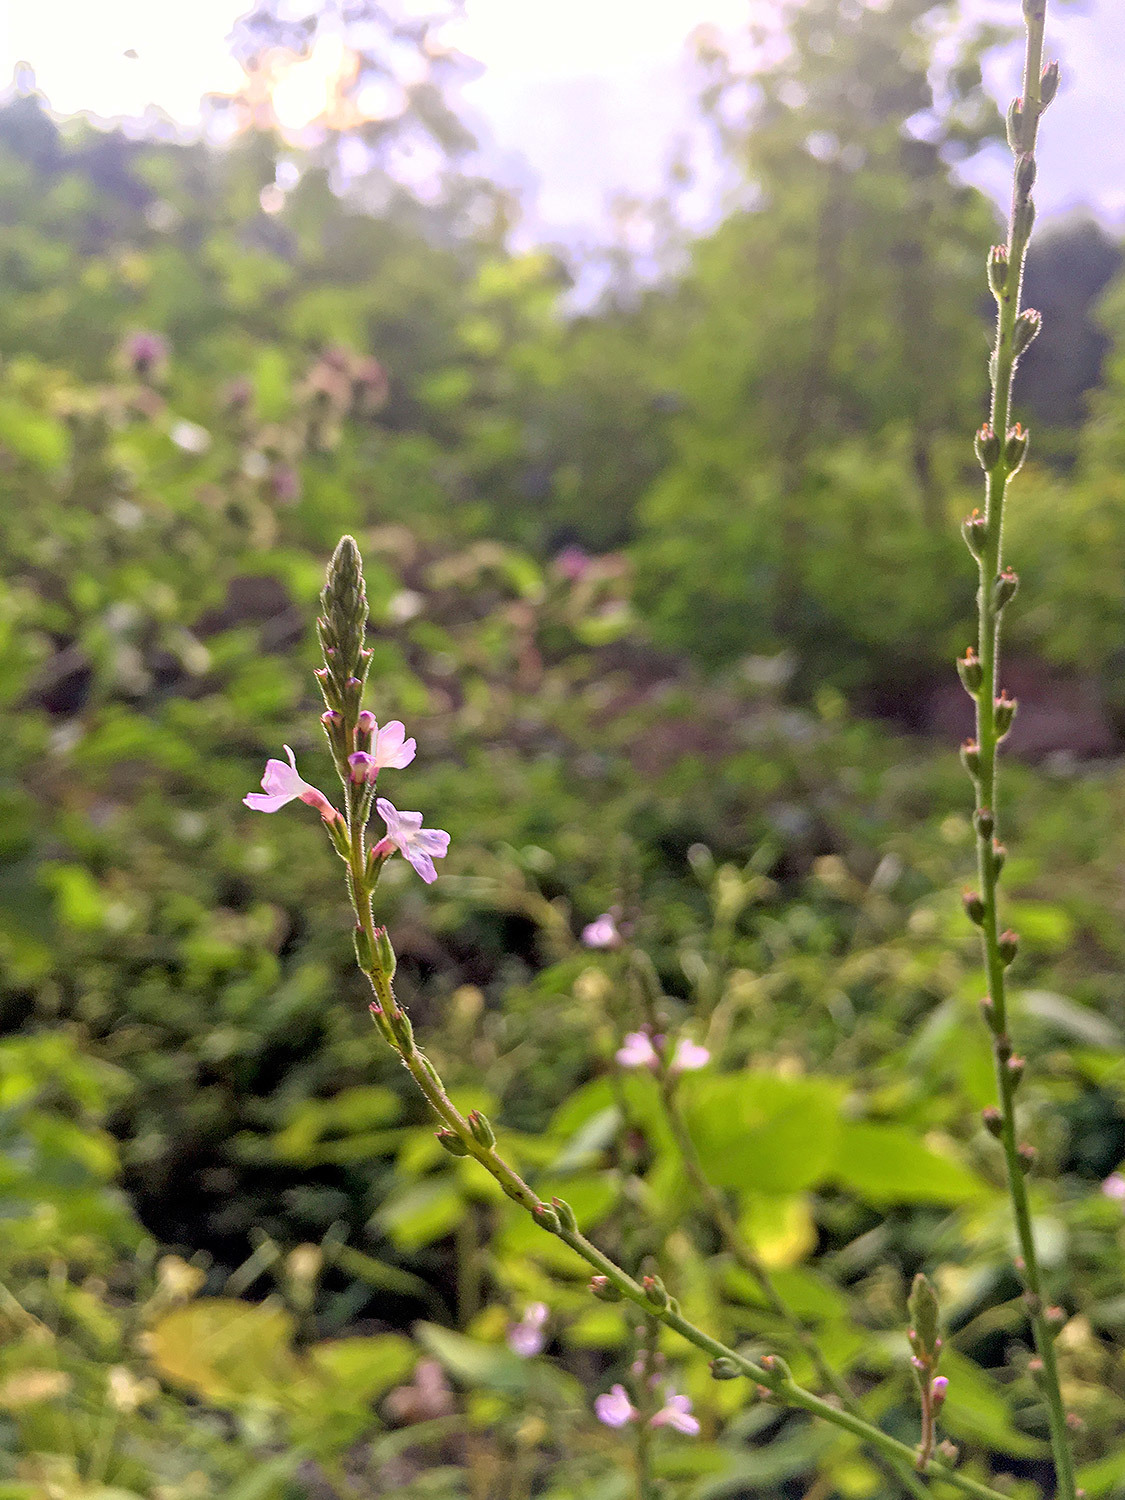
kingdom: Plantae
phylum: Tracheophyta
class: Magnoliopsida
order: Lamiales
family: Verbenaceae
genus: Verbena
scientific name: Verbena officinalis
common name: Vervain
